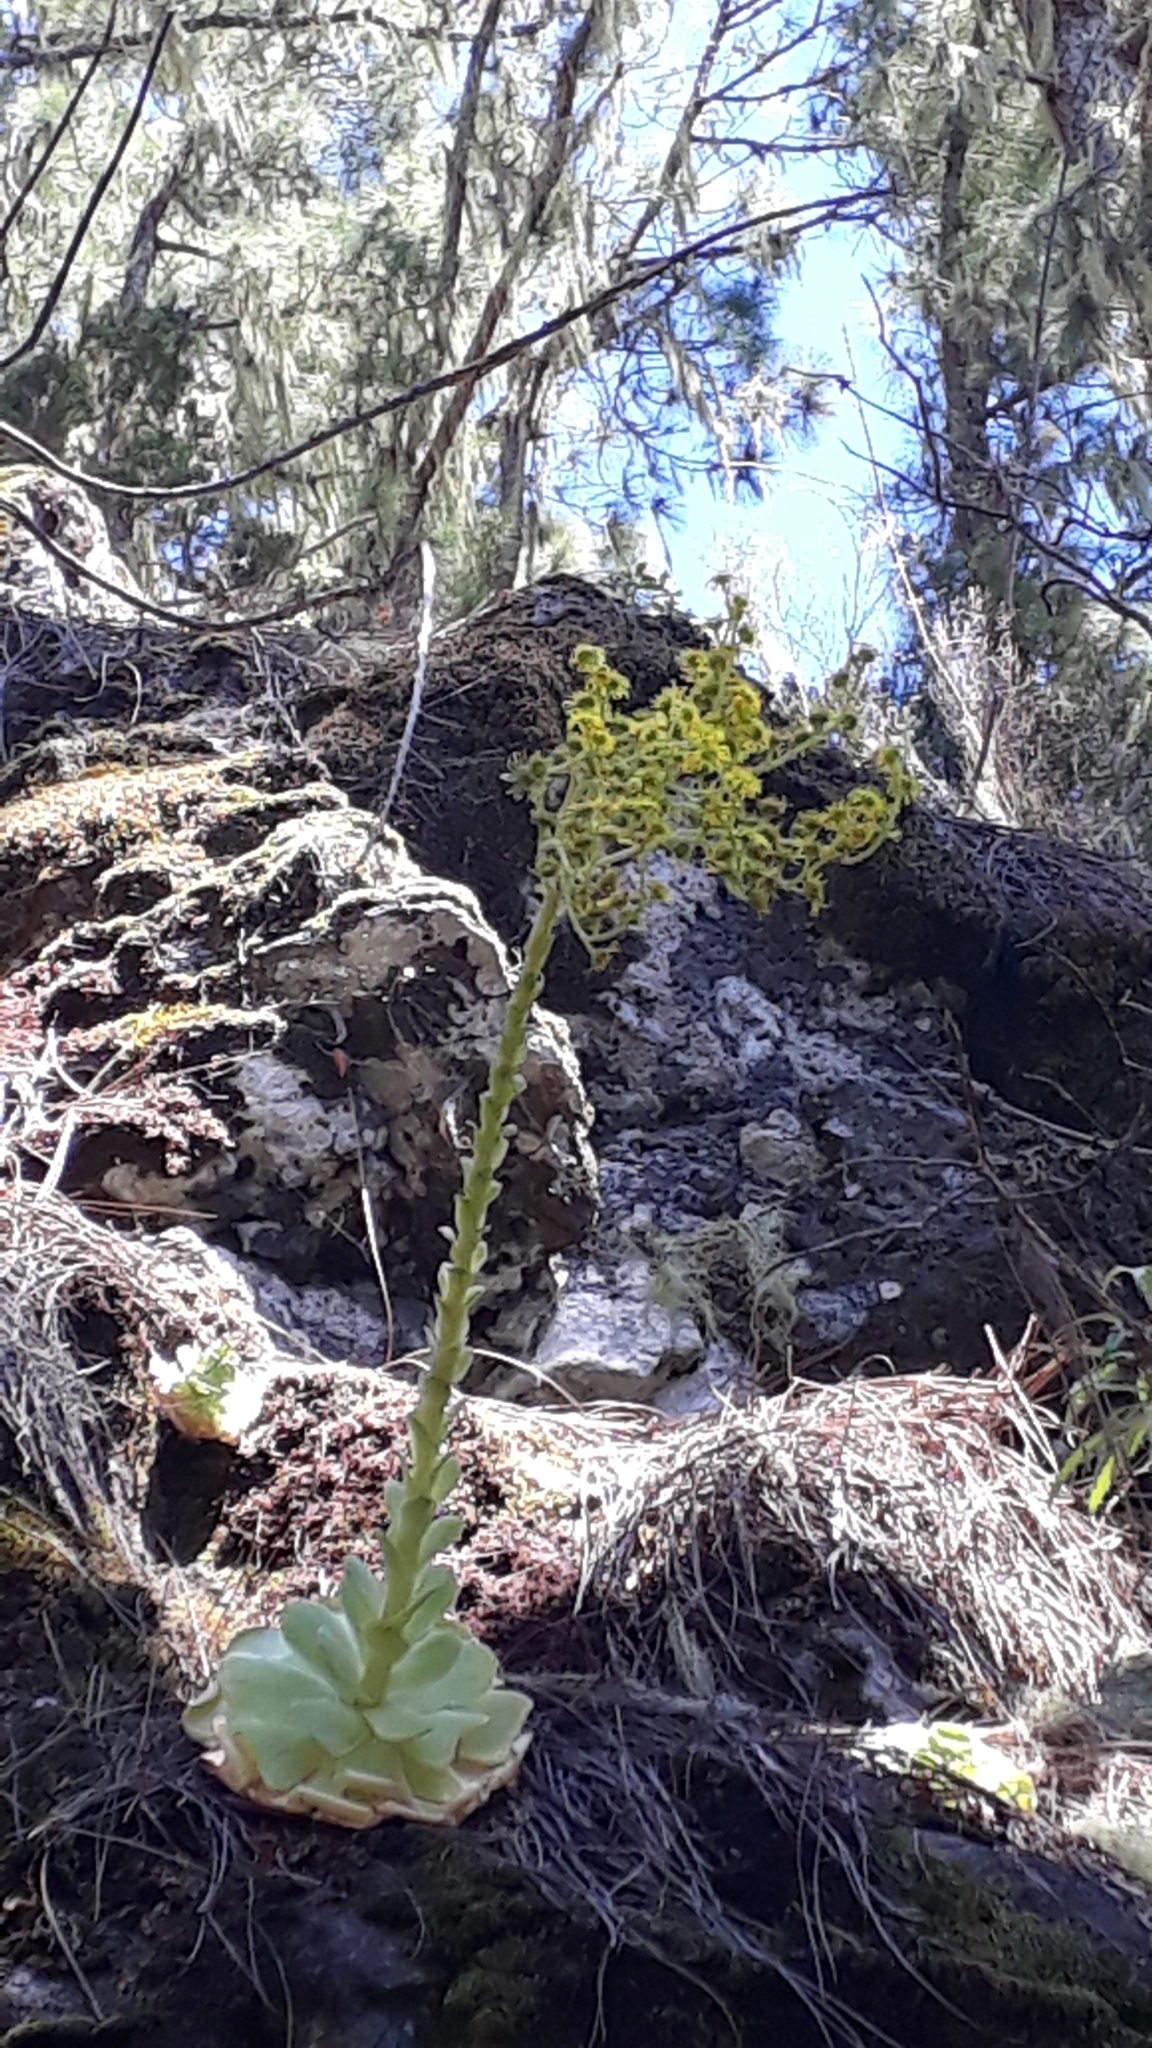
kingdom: Plantae
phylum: Tracheophyta
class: Magnoliopsida
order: Saxifragales
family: Crassulaceae
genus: Aeonium
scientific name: Aeonium aureum
